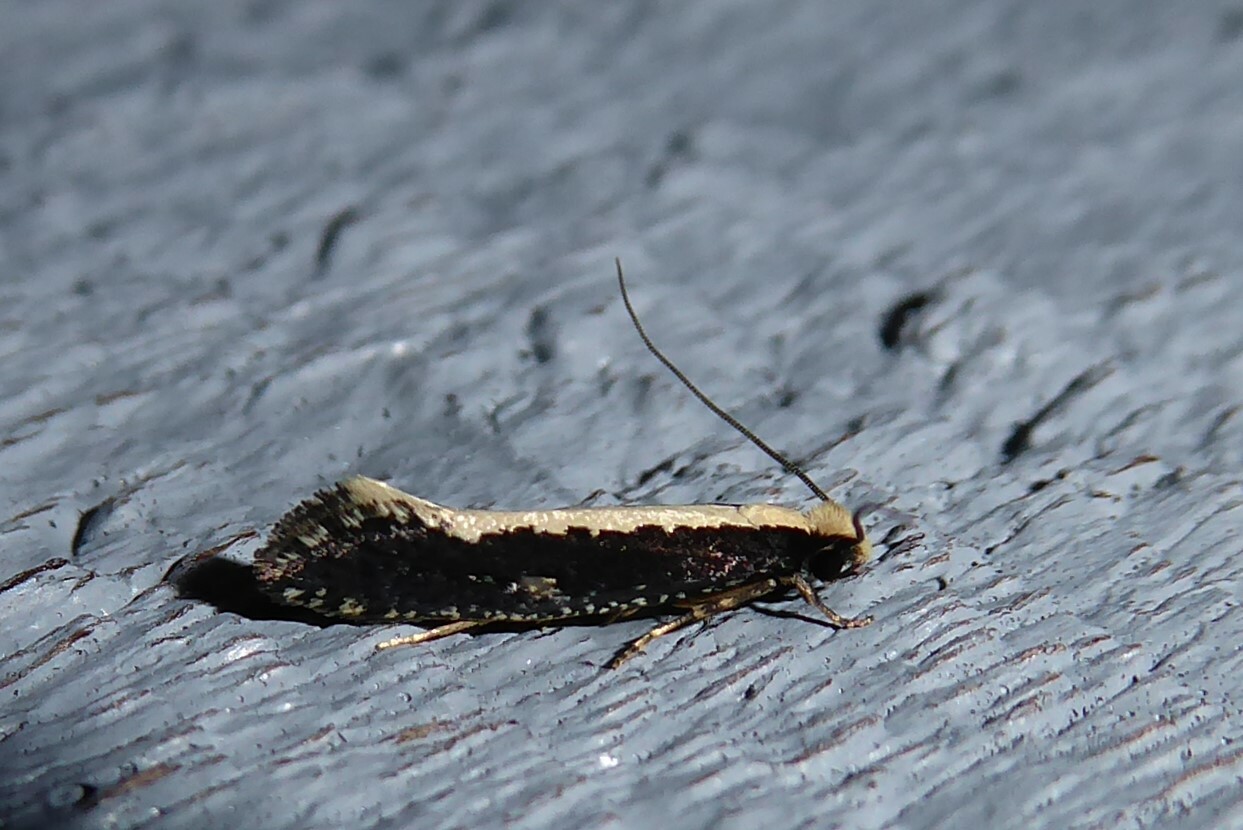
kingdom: Animalia
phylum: Arthropoda
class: Insecta
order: Lepidoptera
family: Tineidae
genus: Monopis
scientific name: Monopis ethelella
